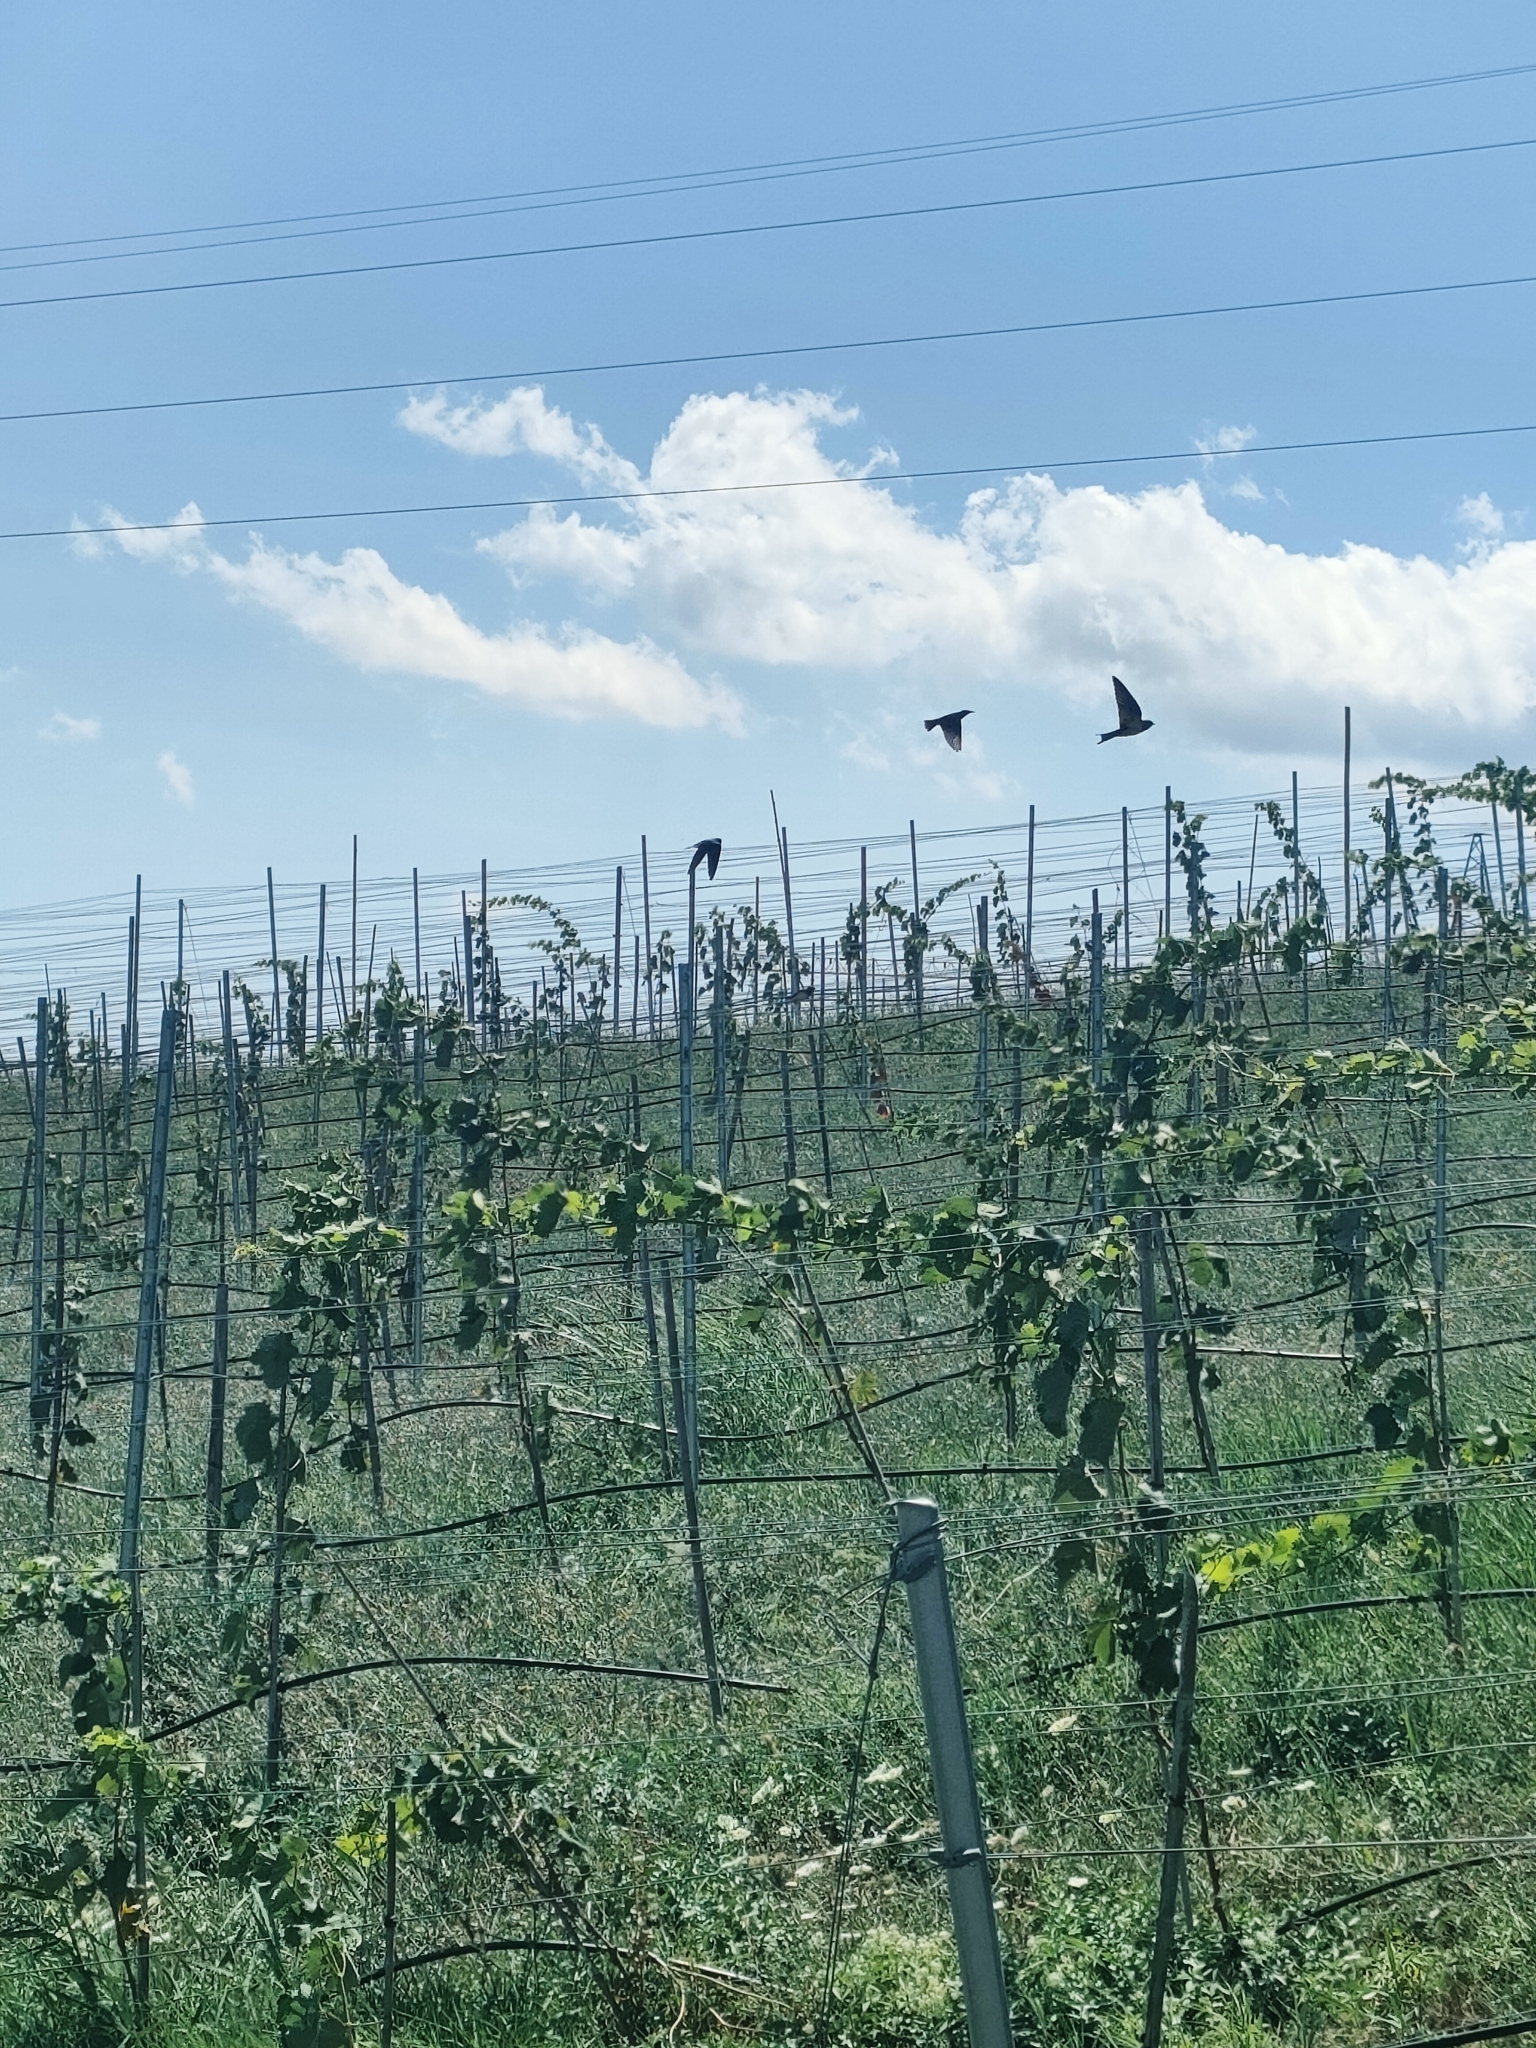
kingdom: Animalia
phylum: Chordata
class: Aves
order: Passeriformes
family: Hirundinidae
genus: Hirundo
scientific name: Hirundo rustica
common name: Barn swallow
